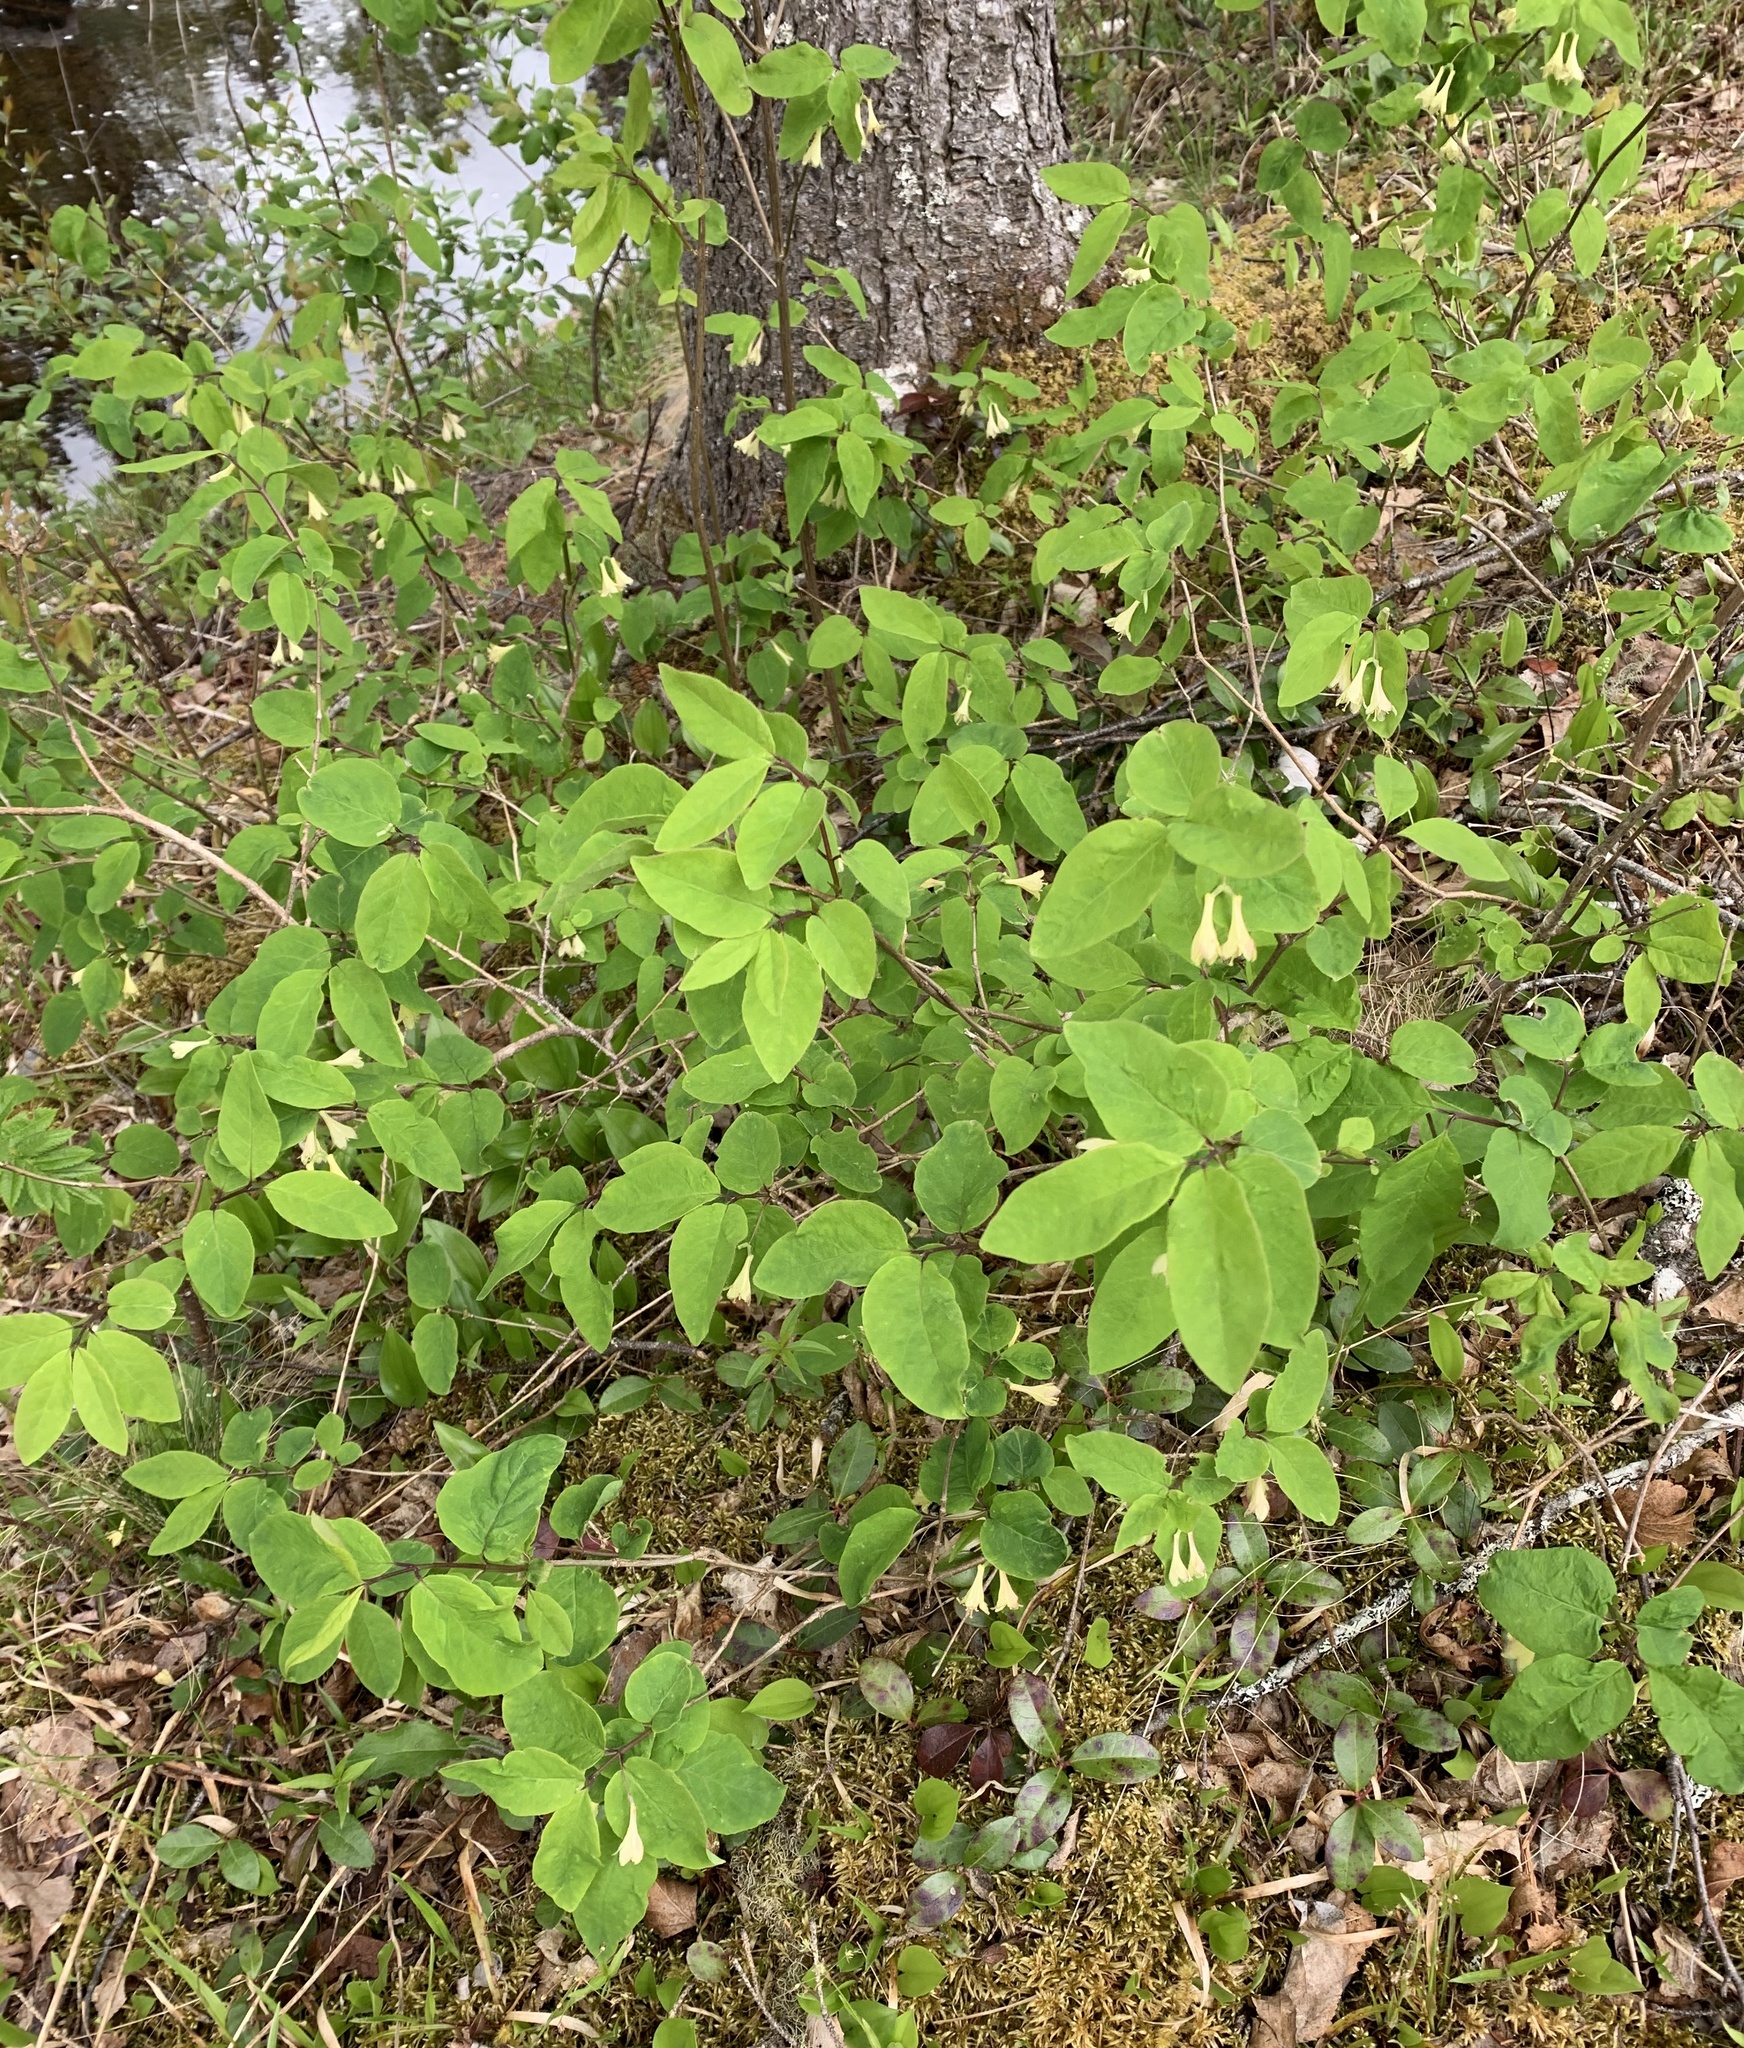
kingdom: Plantae
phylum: Tracheophyta
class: Magnoliopsida
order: Dipsacales
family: Caprifoliaceae
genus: Lonicera
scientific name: Lonicera canadensis
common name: American fly-honeysuckle
